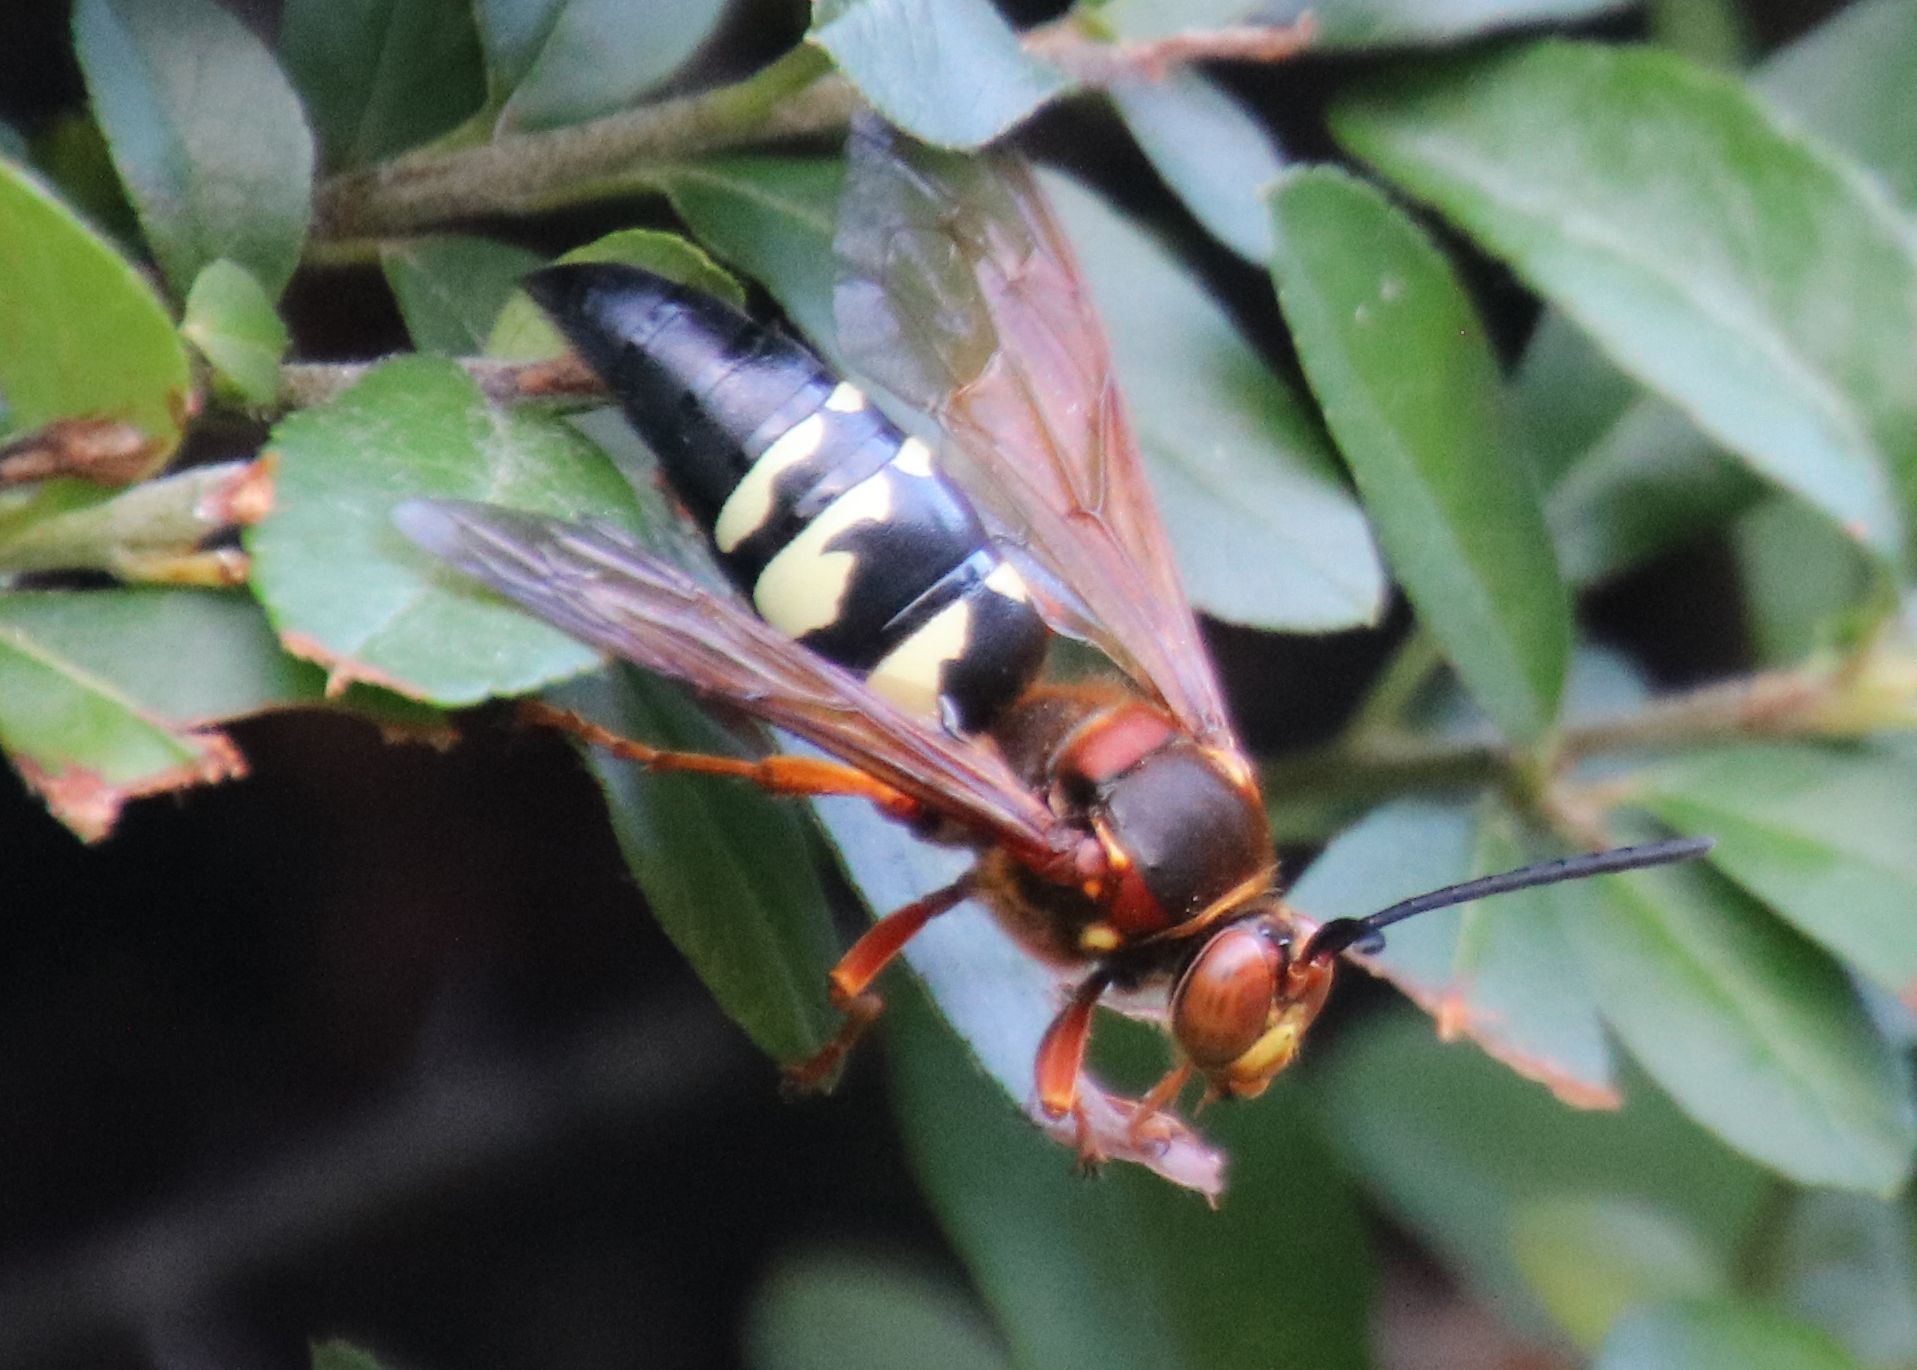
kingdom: Animalia
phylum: Arthropoda
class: Insecta
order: Hymenoptera
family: Crabronidae
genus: Sphecius
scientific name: Sphecius speciosus
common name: Cicada killer
